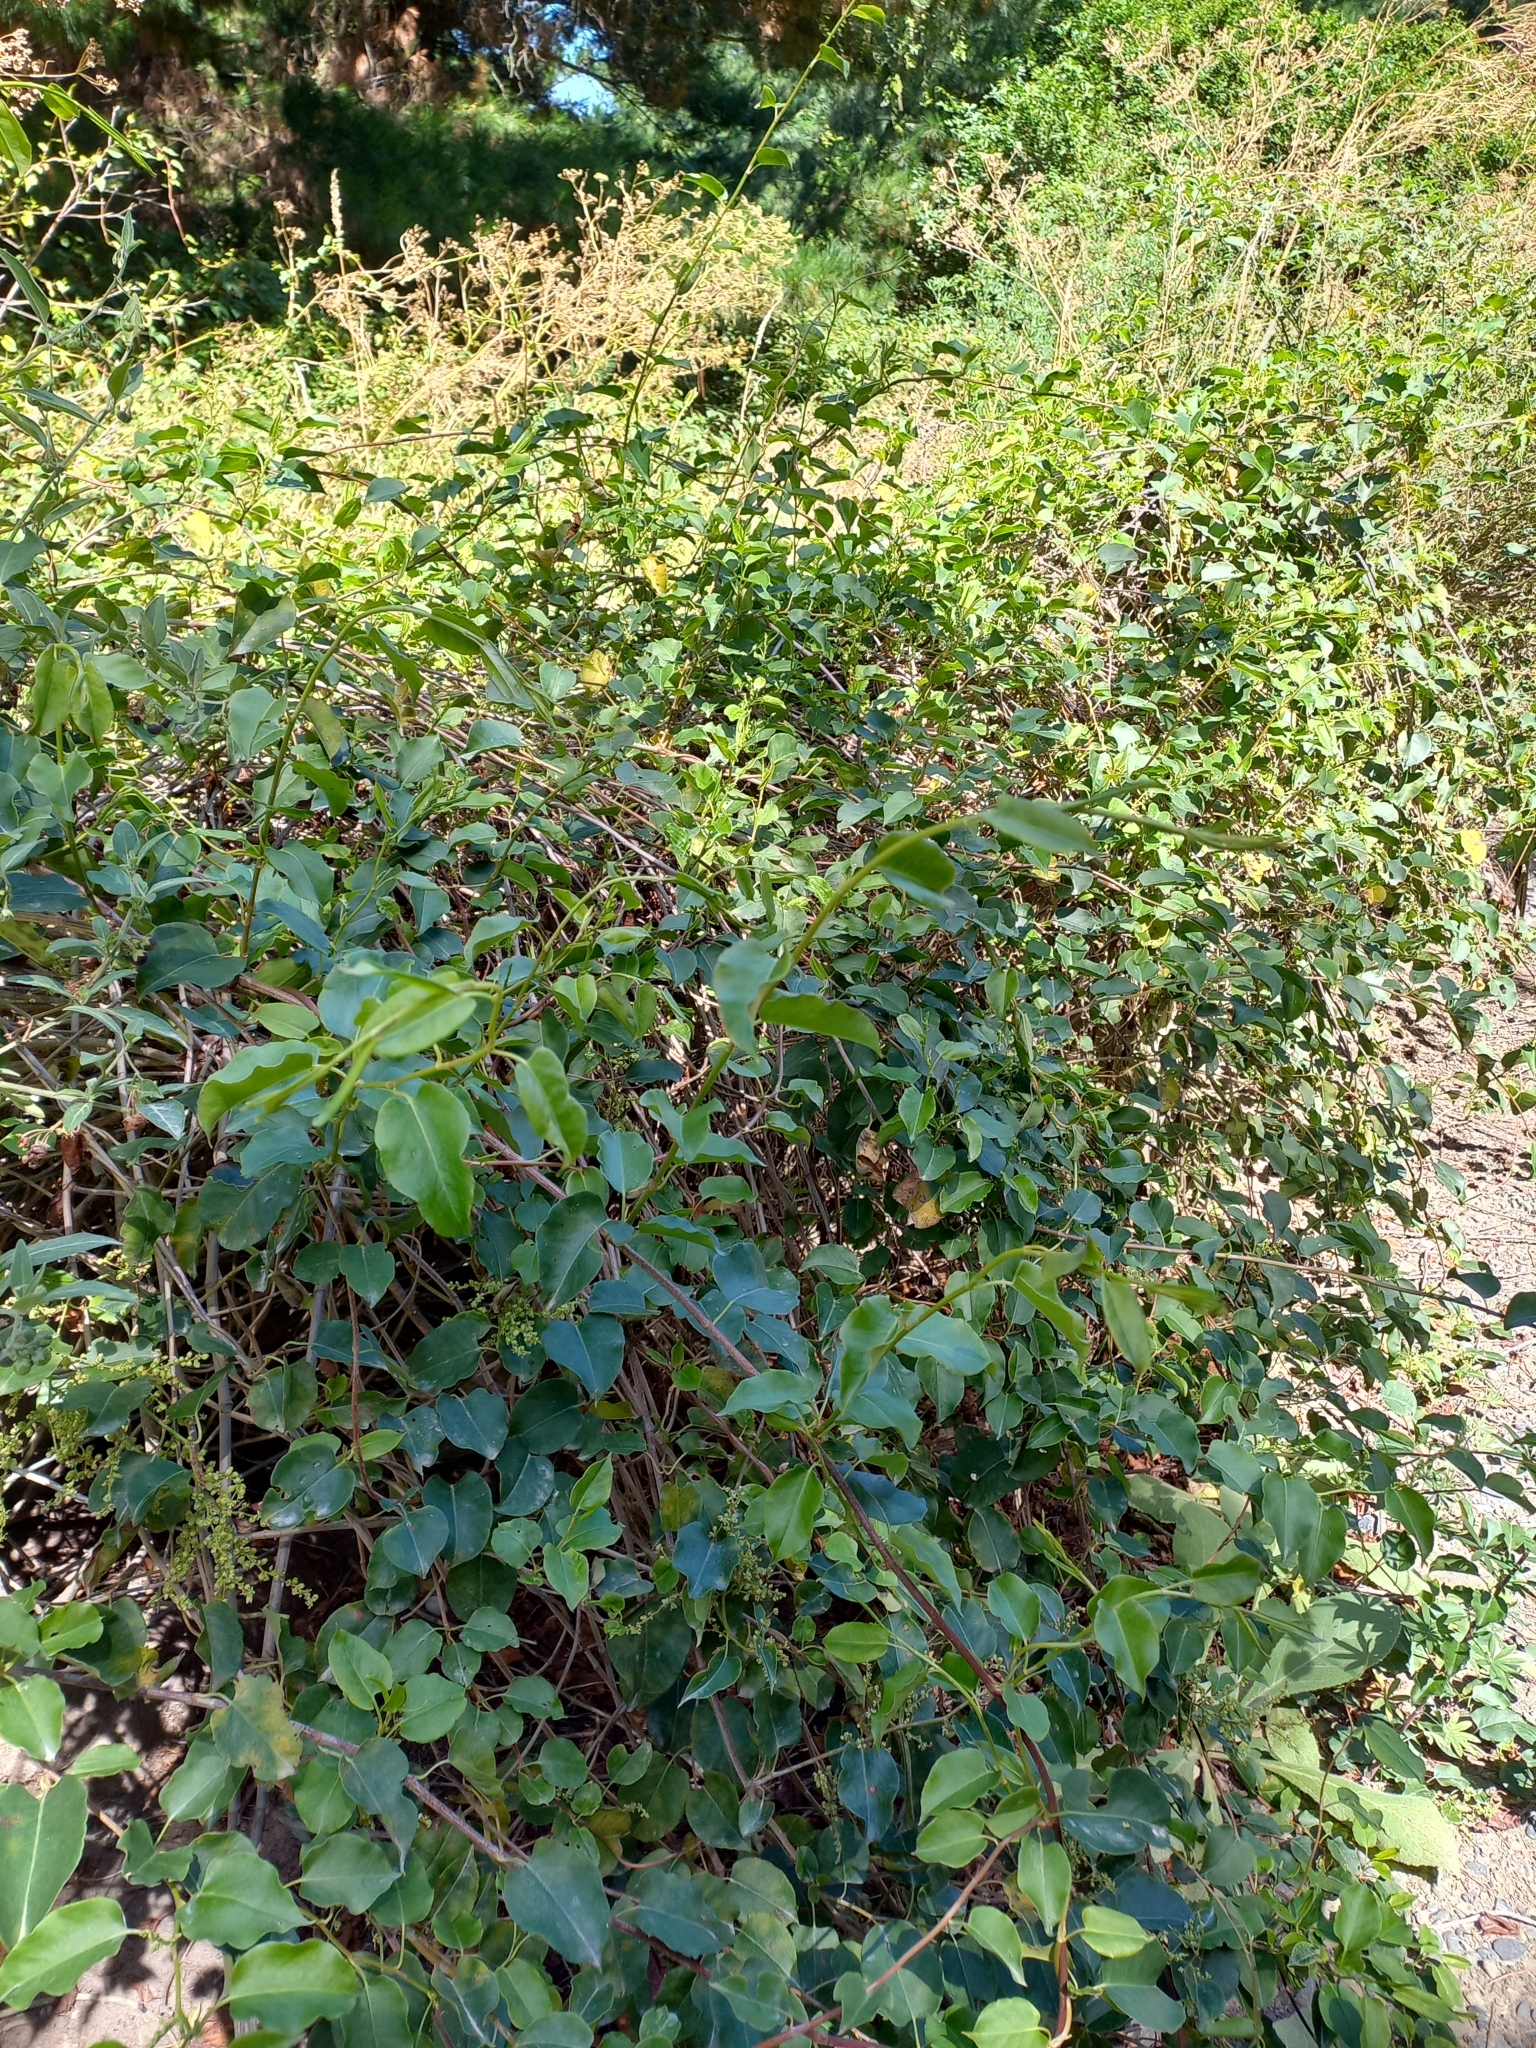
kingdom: Plantae
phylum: Tracheophyta
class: Magnoliopsida
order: Caryophyllales
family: Polygonaceae
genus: Muehlenbeckia
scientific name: Muehlenbeckia australis
